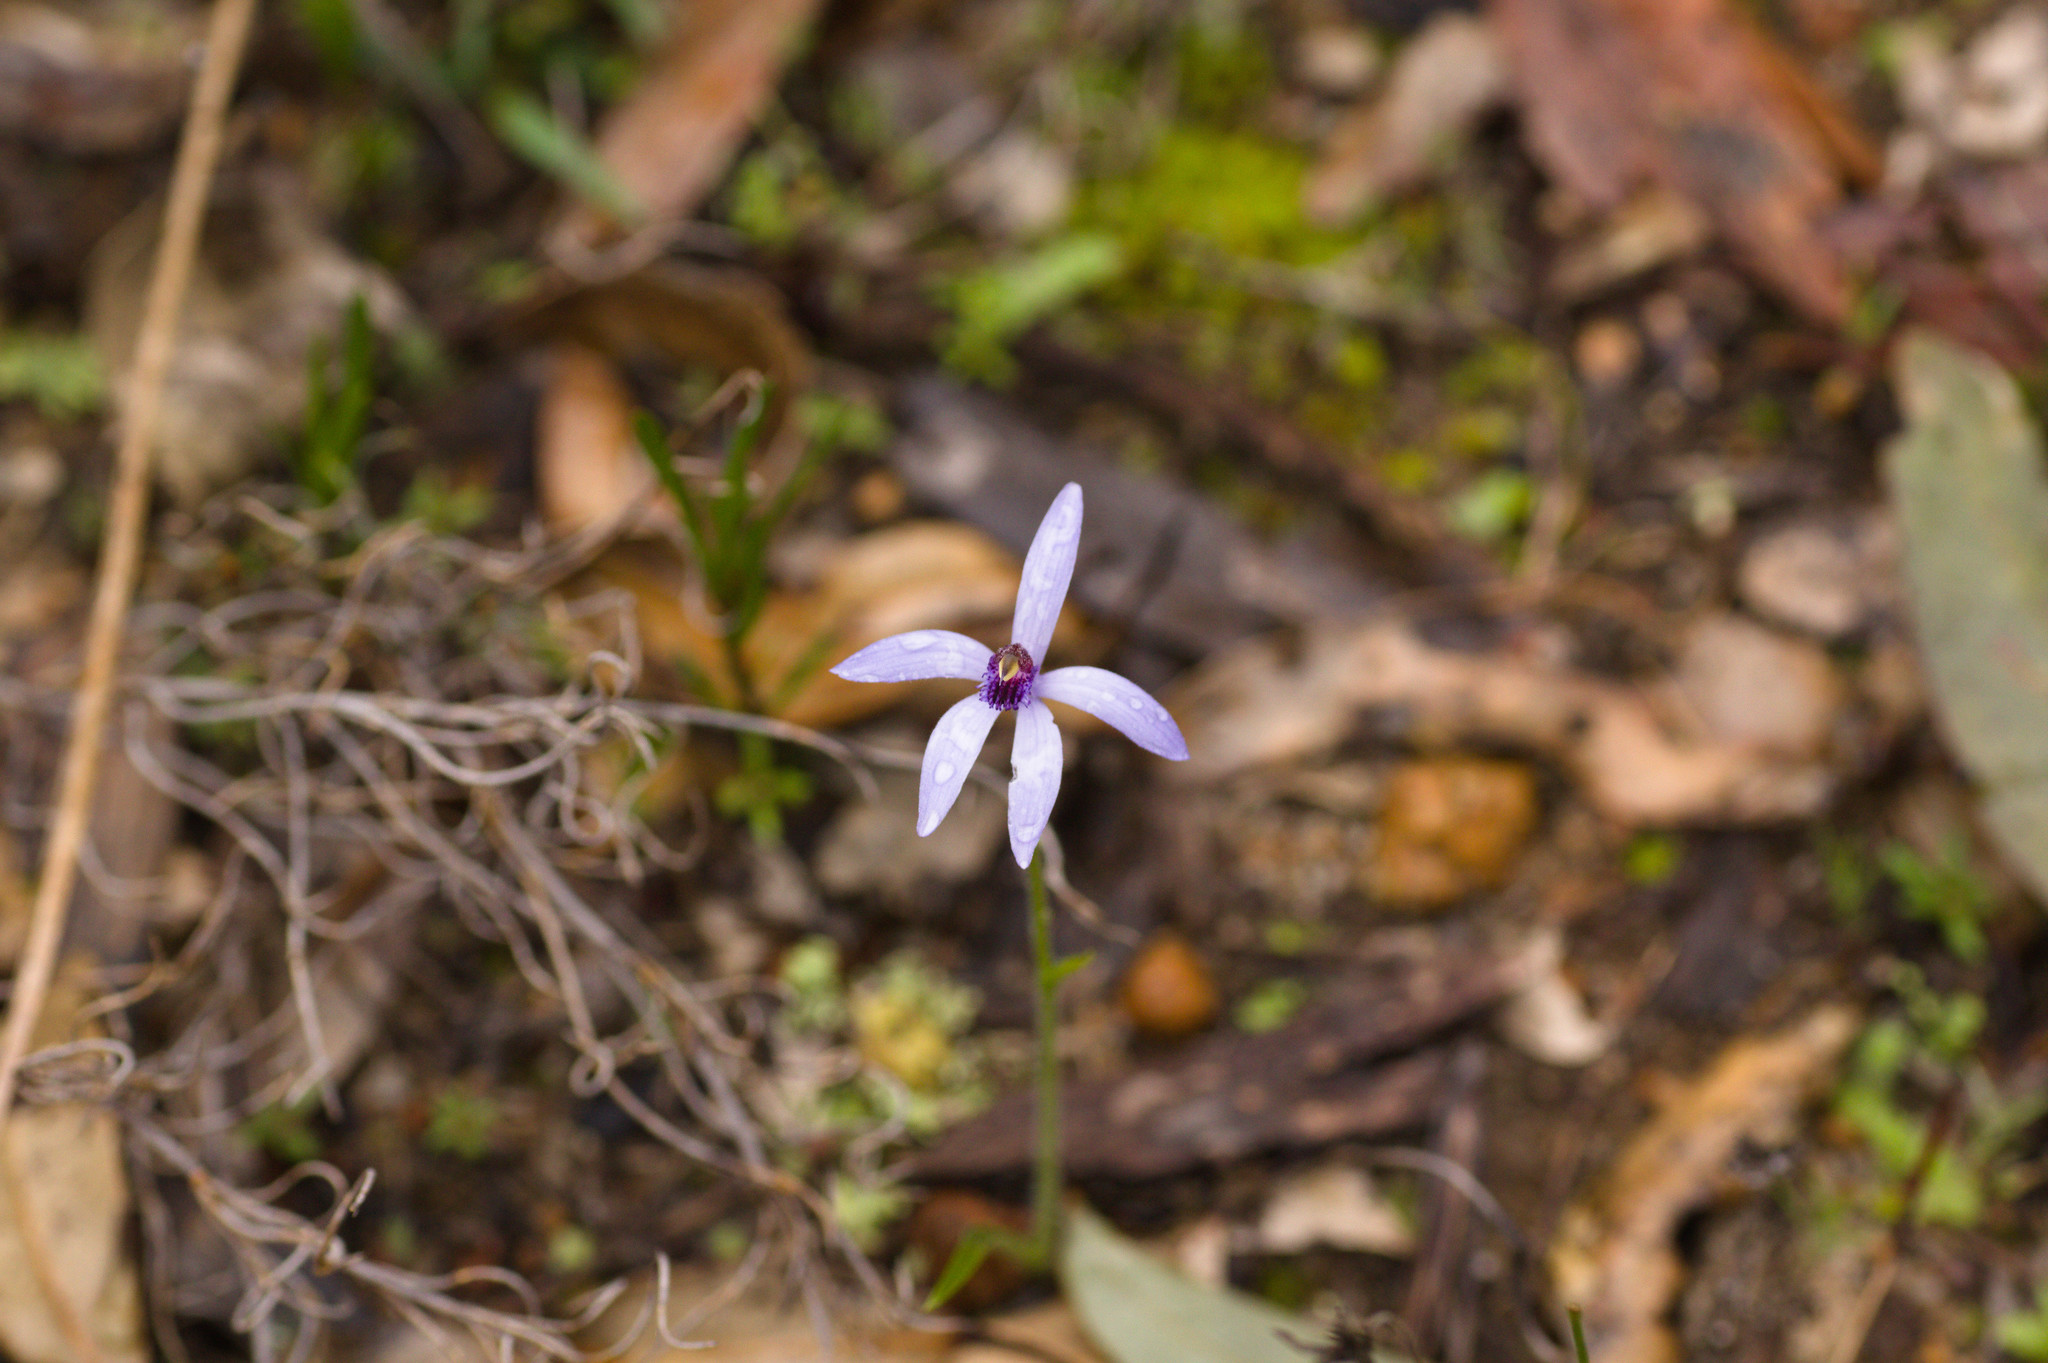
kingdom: Plantae
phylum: Tracheophyta
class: Liliopsida
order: Asparagales
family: Orchidaceae
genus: Pheladenia
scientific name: Pheladenia deformis
